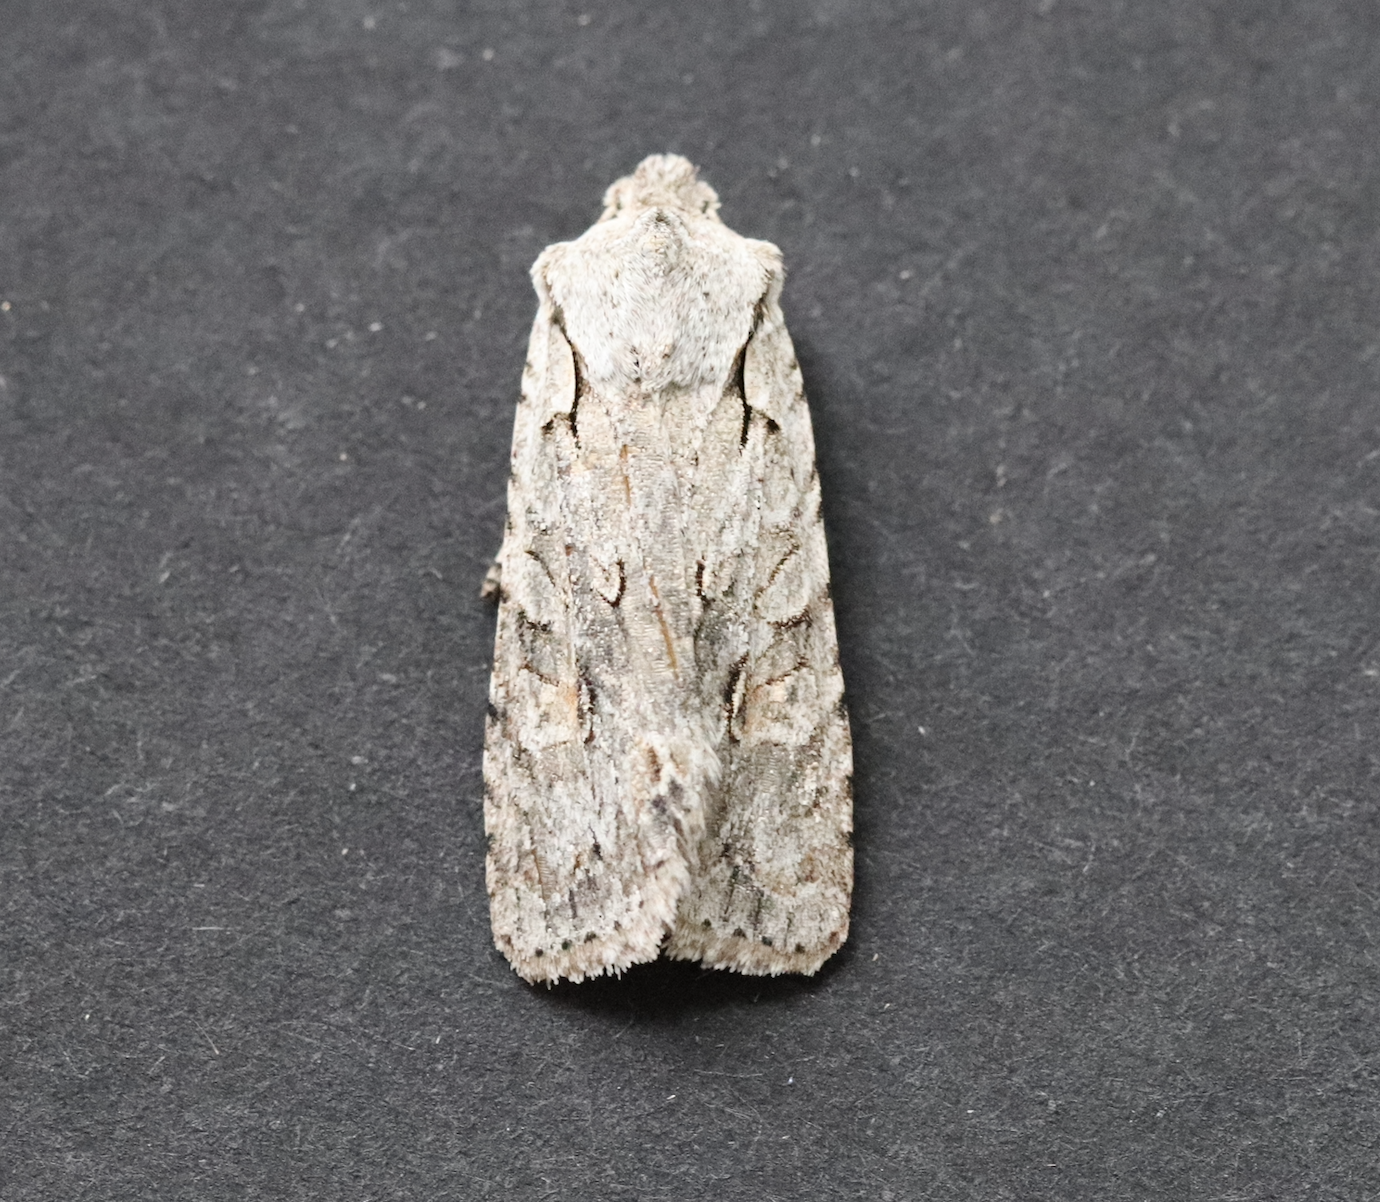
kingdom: Animalia
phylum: Arthropoda
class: Insecta
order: Lepidoptera
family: Noctuidae
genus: Lithophane
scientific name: Lithophane ornitopus
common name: Grey shoulder-knot
